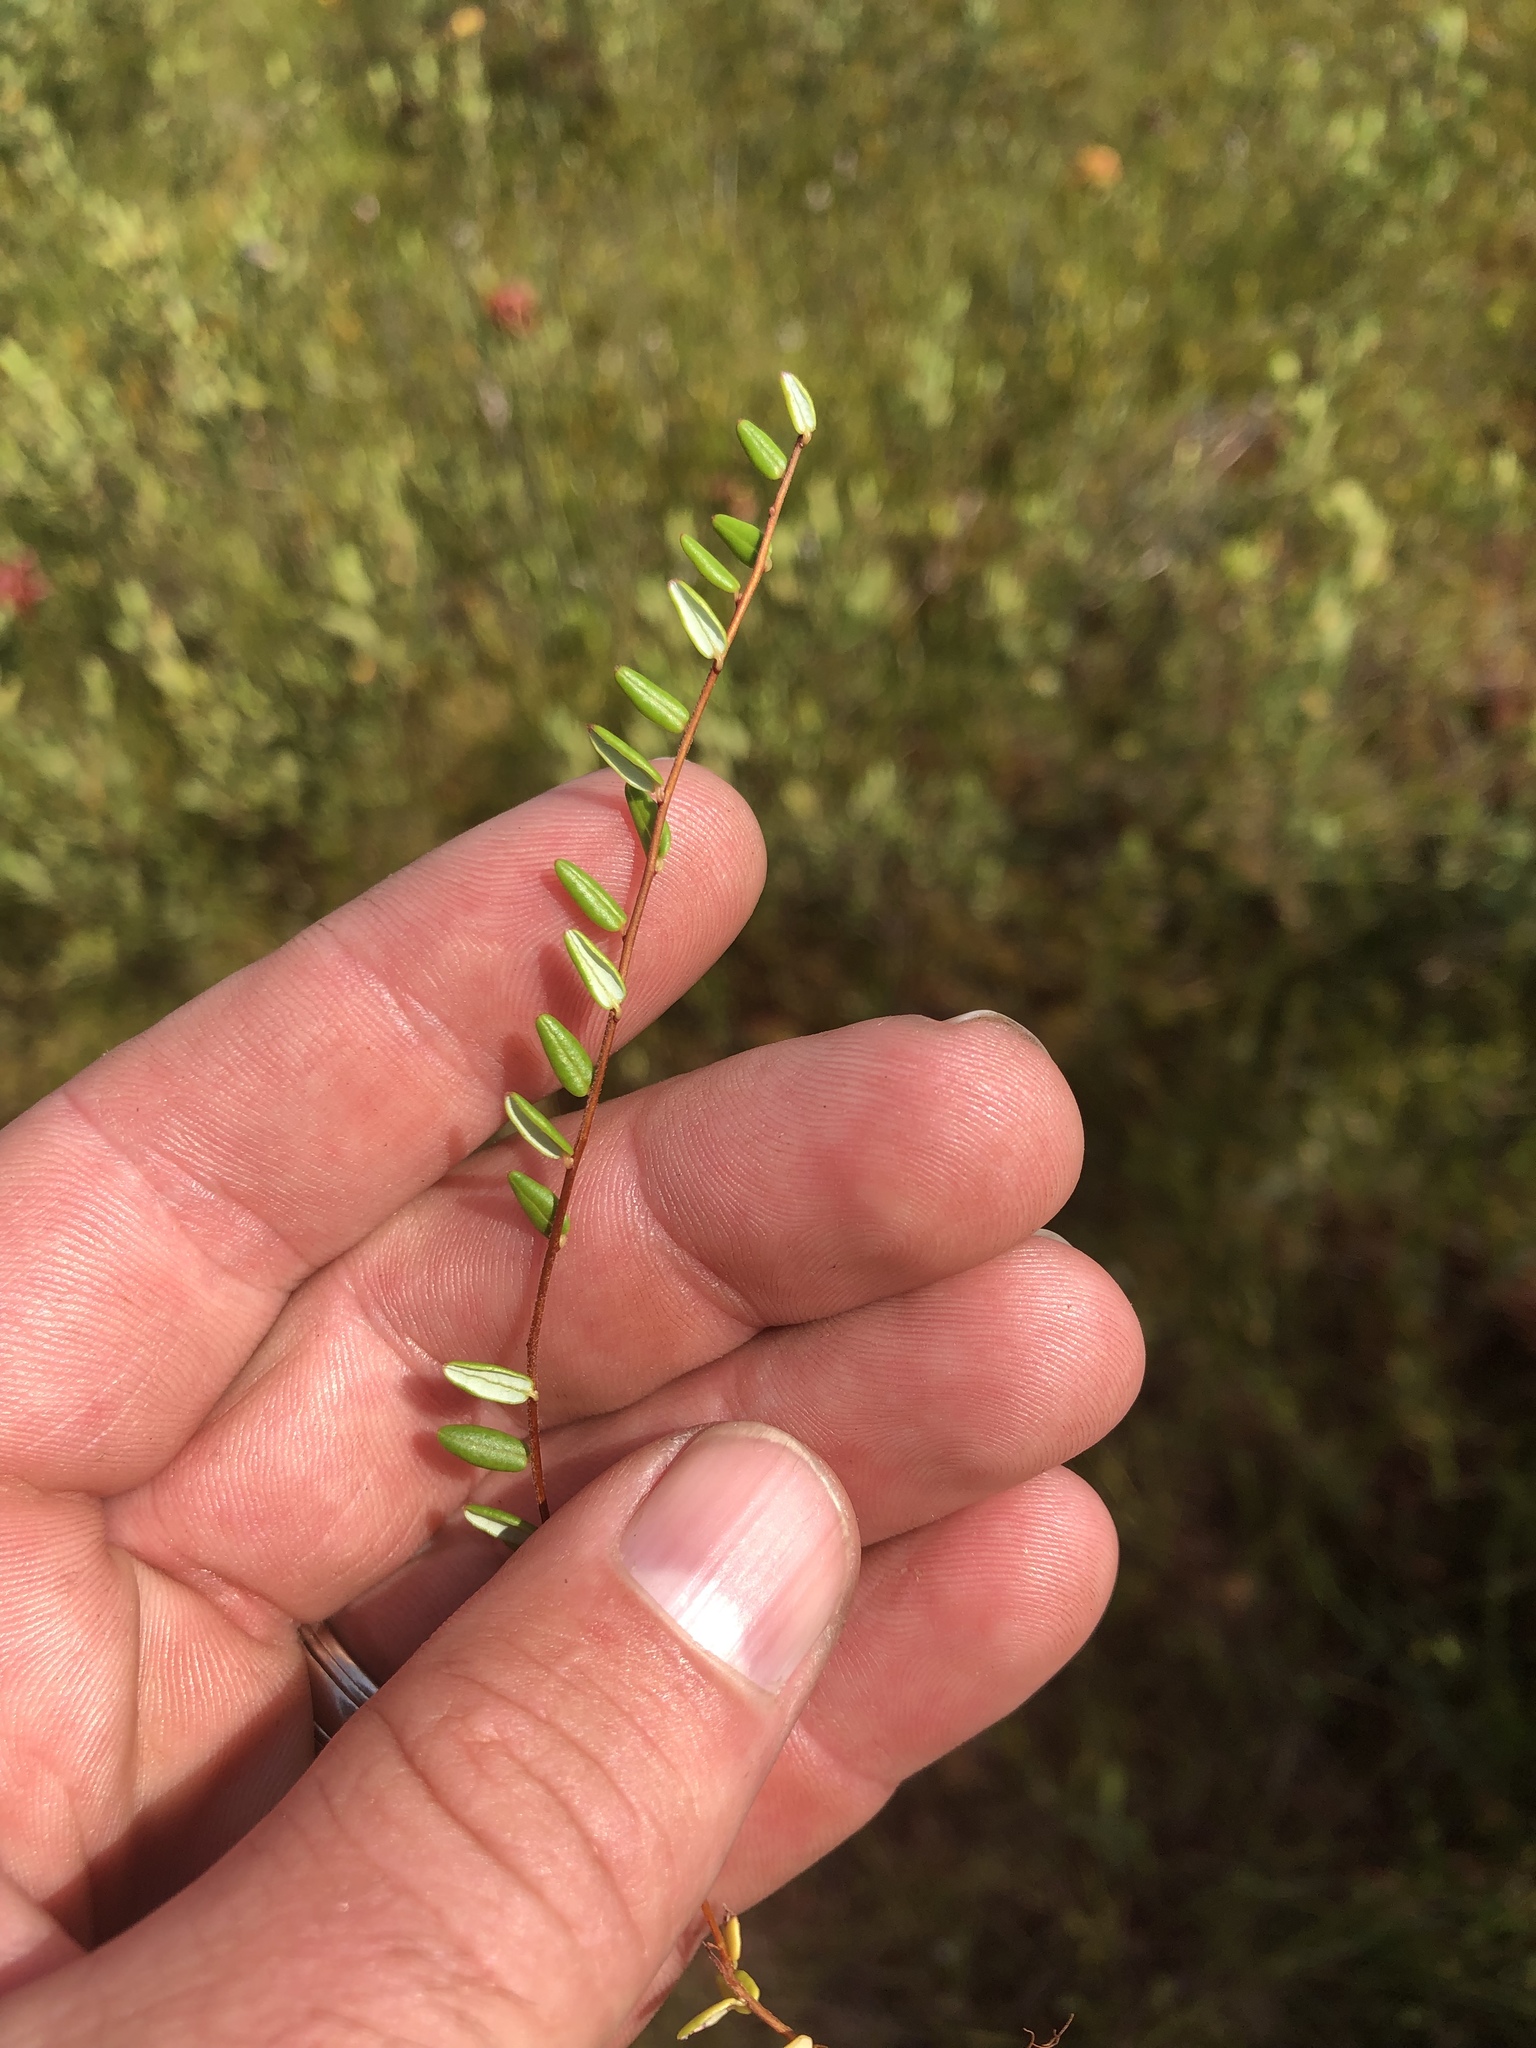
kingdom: Plantae
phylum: Tracheophyta
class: Magnoliopsida
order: Ericales
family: Ericaceae
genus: Vaccinium
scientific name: Vaccinium oxycoccos
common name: Cranberry
